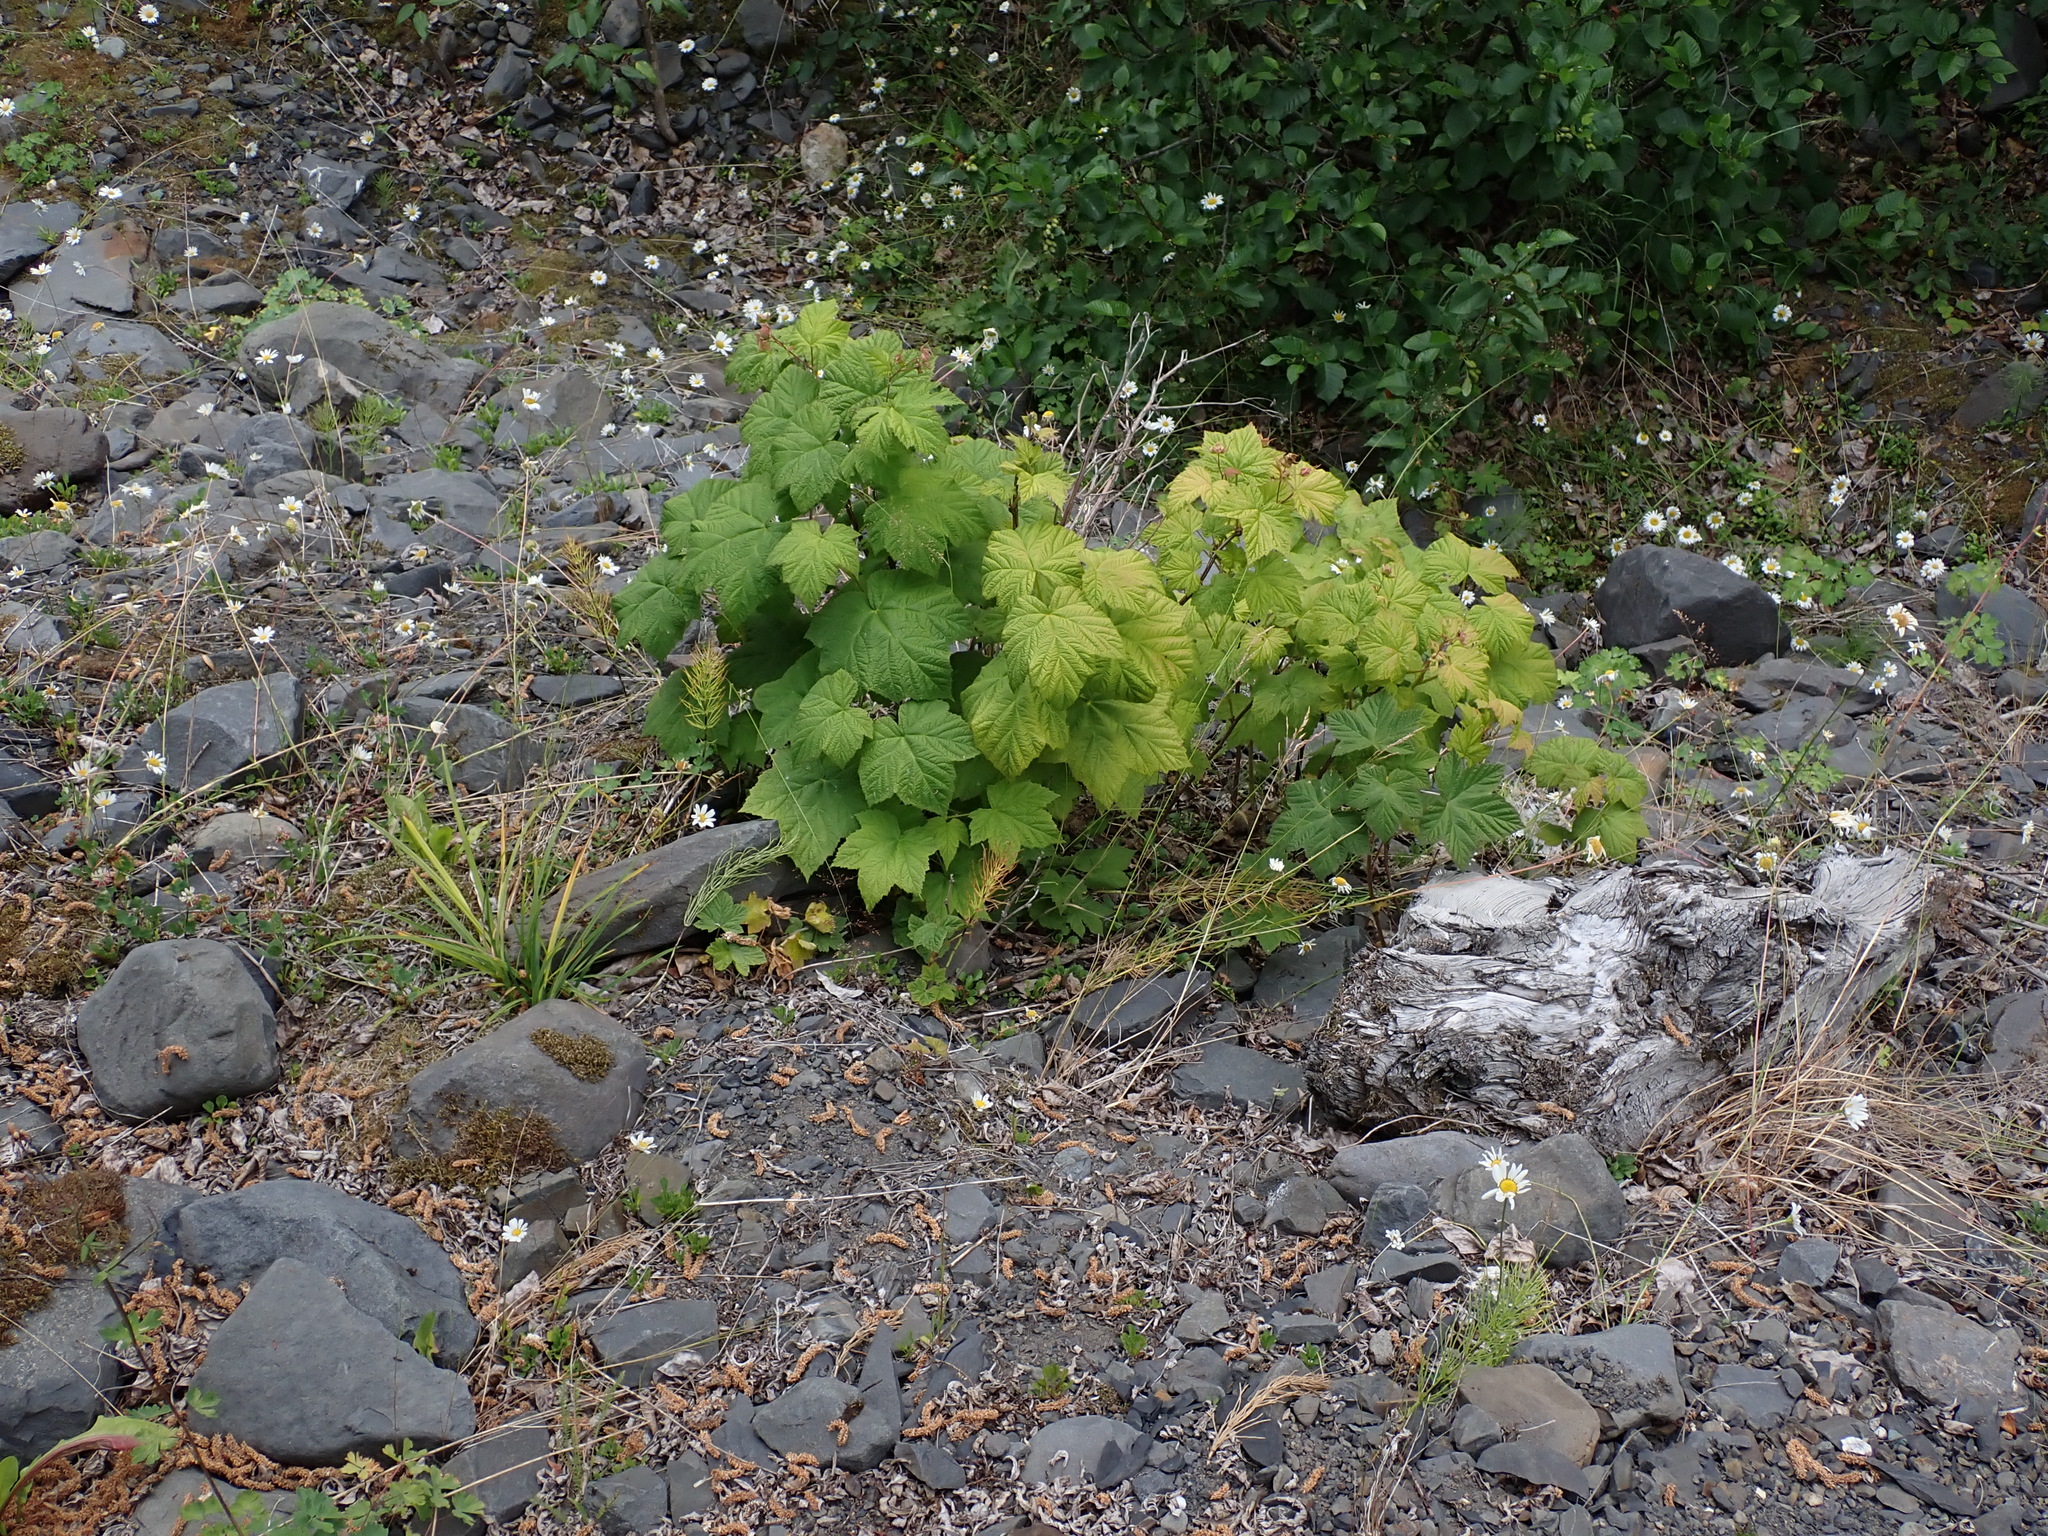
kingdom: Plantae
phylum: Tracheophyta
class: Magnoliopsida
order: Rosales
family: Rosaceae
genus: Rubus
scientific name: Rubus parviflorus
